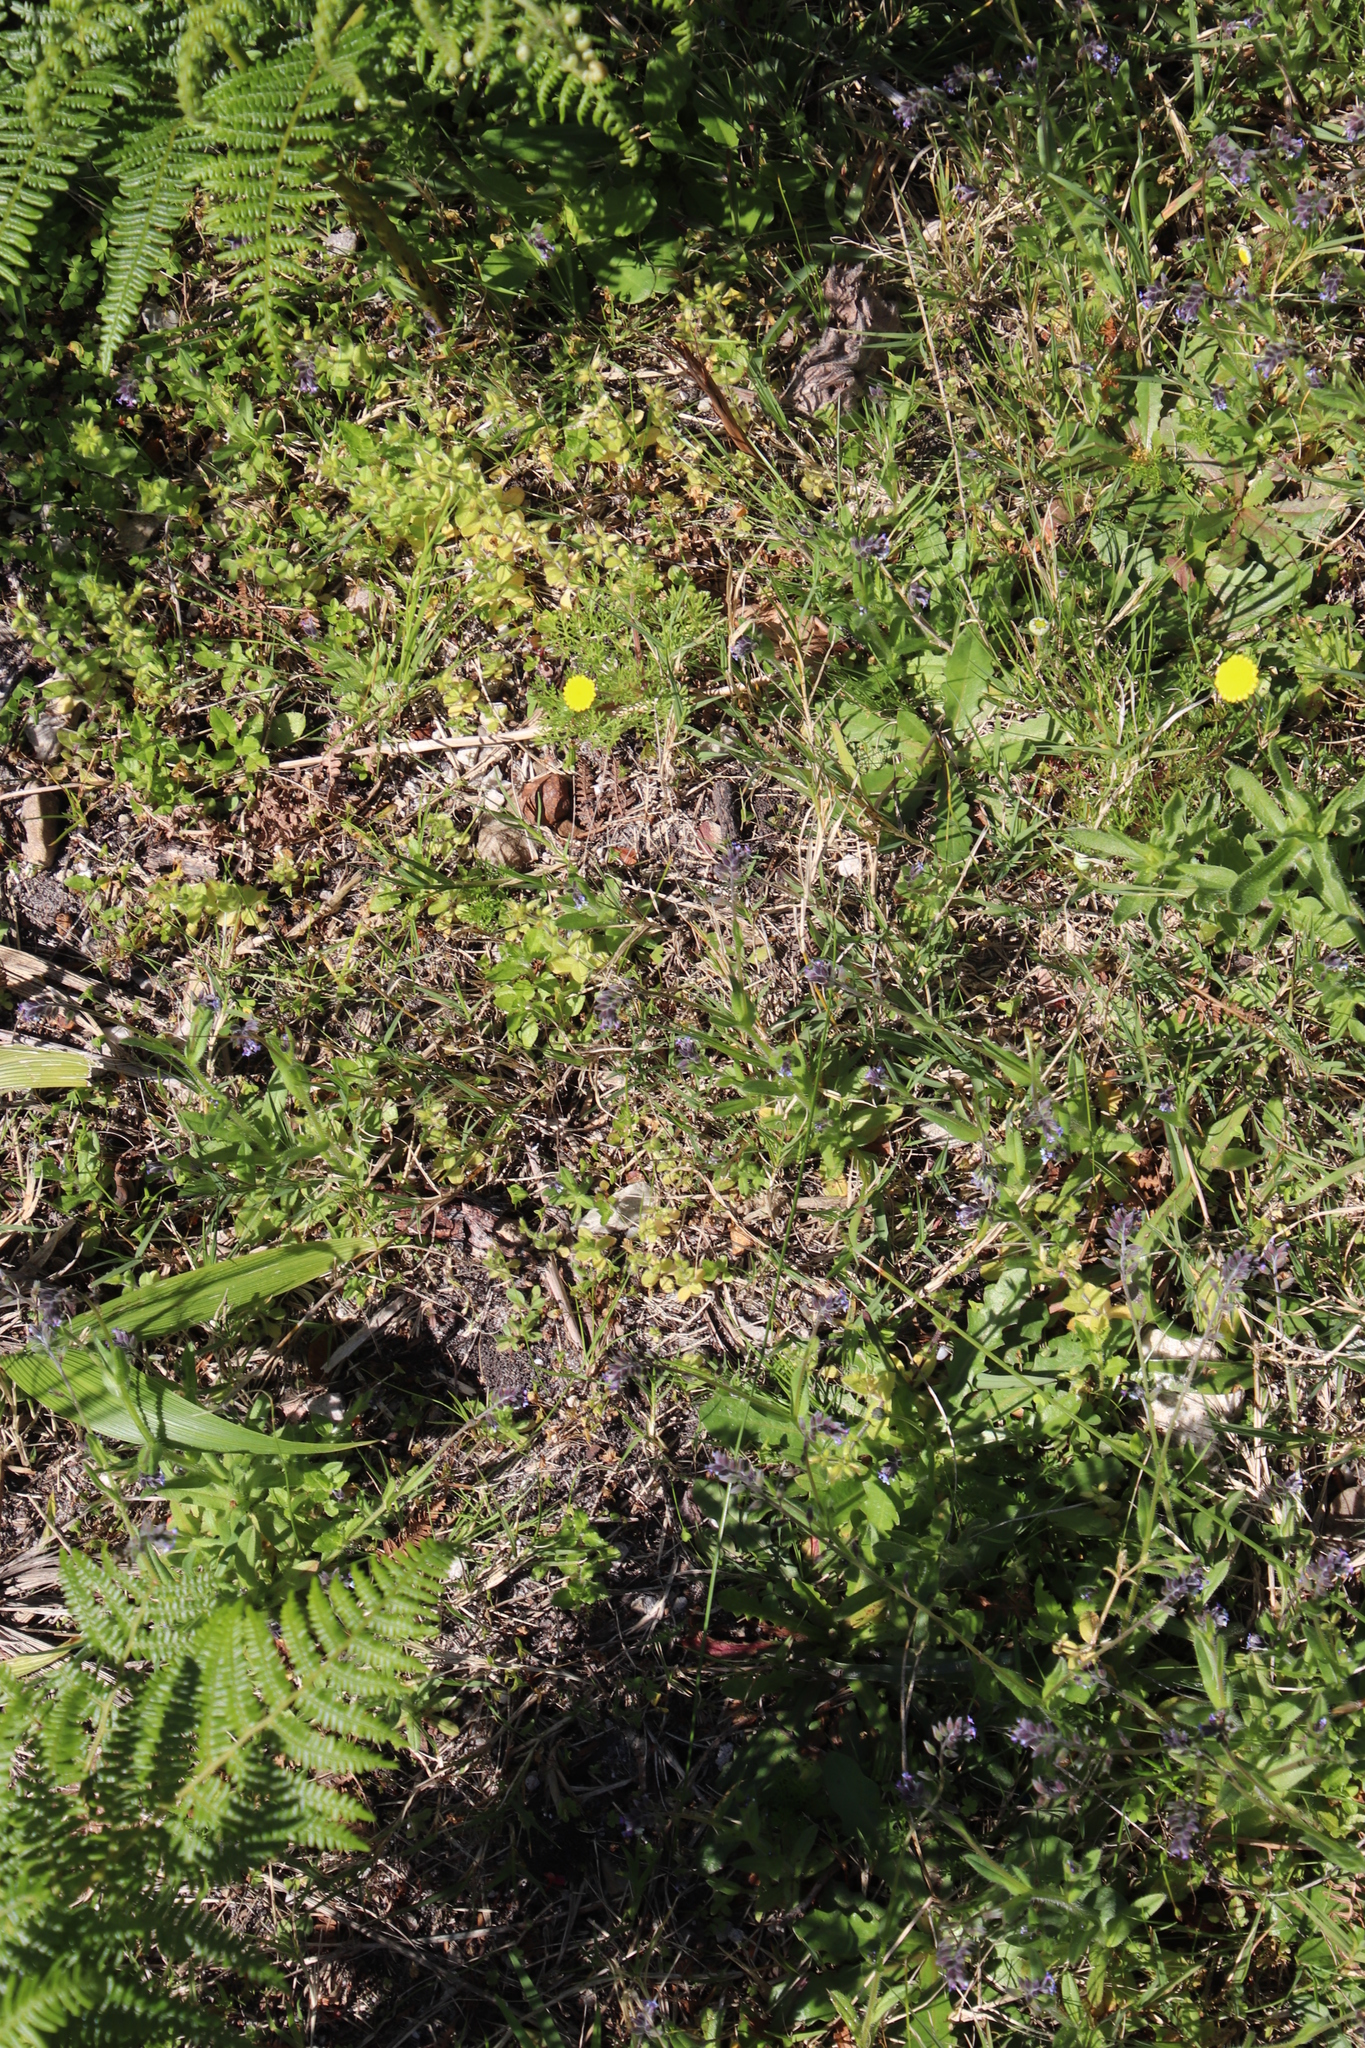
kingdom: Plantae
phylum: Tracheophyta
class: Liliopsida
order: Poales
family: Poaceae
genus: Setaria
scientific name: Setaria megaphylla
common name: Bigleaf bristlegrass
